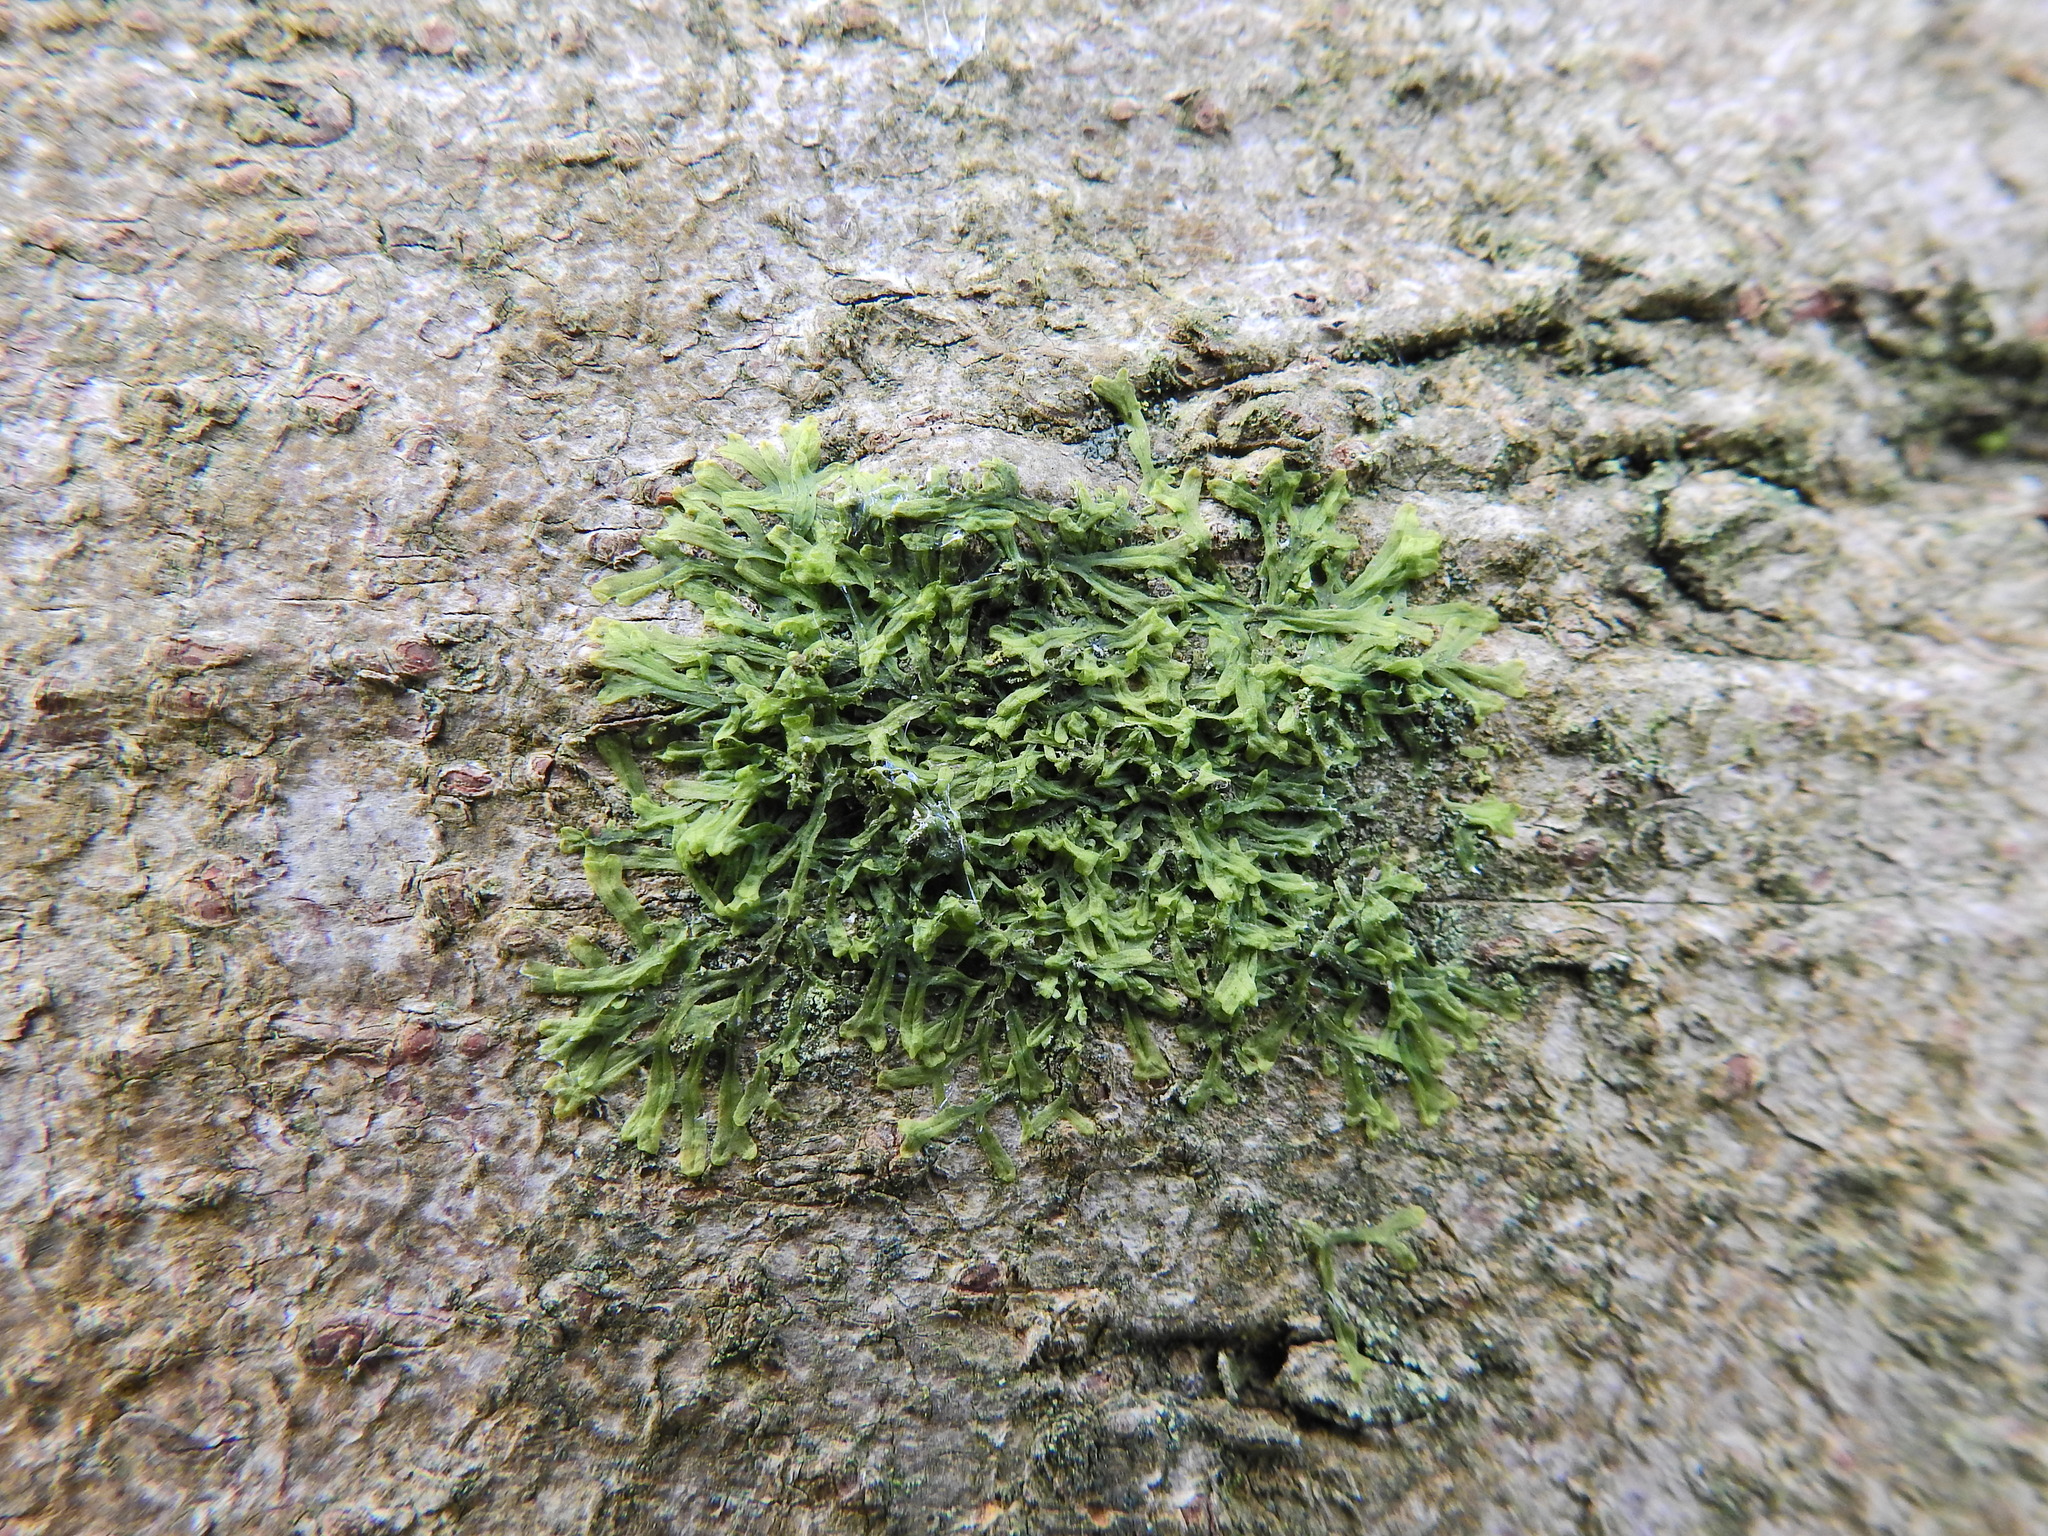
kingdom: Plantae
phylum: Marchantiophyta
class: Jungermanniopsida
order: Metzgeriales
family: Metzgeriaceae
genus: Metzgeria
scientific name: Metzgeria furcata
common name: Forked veilwort
